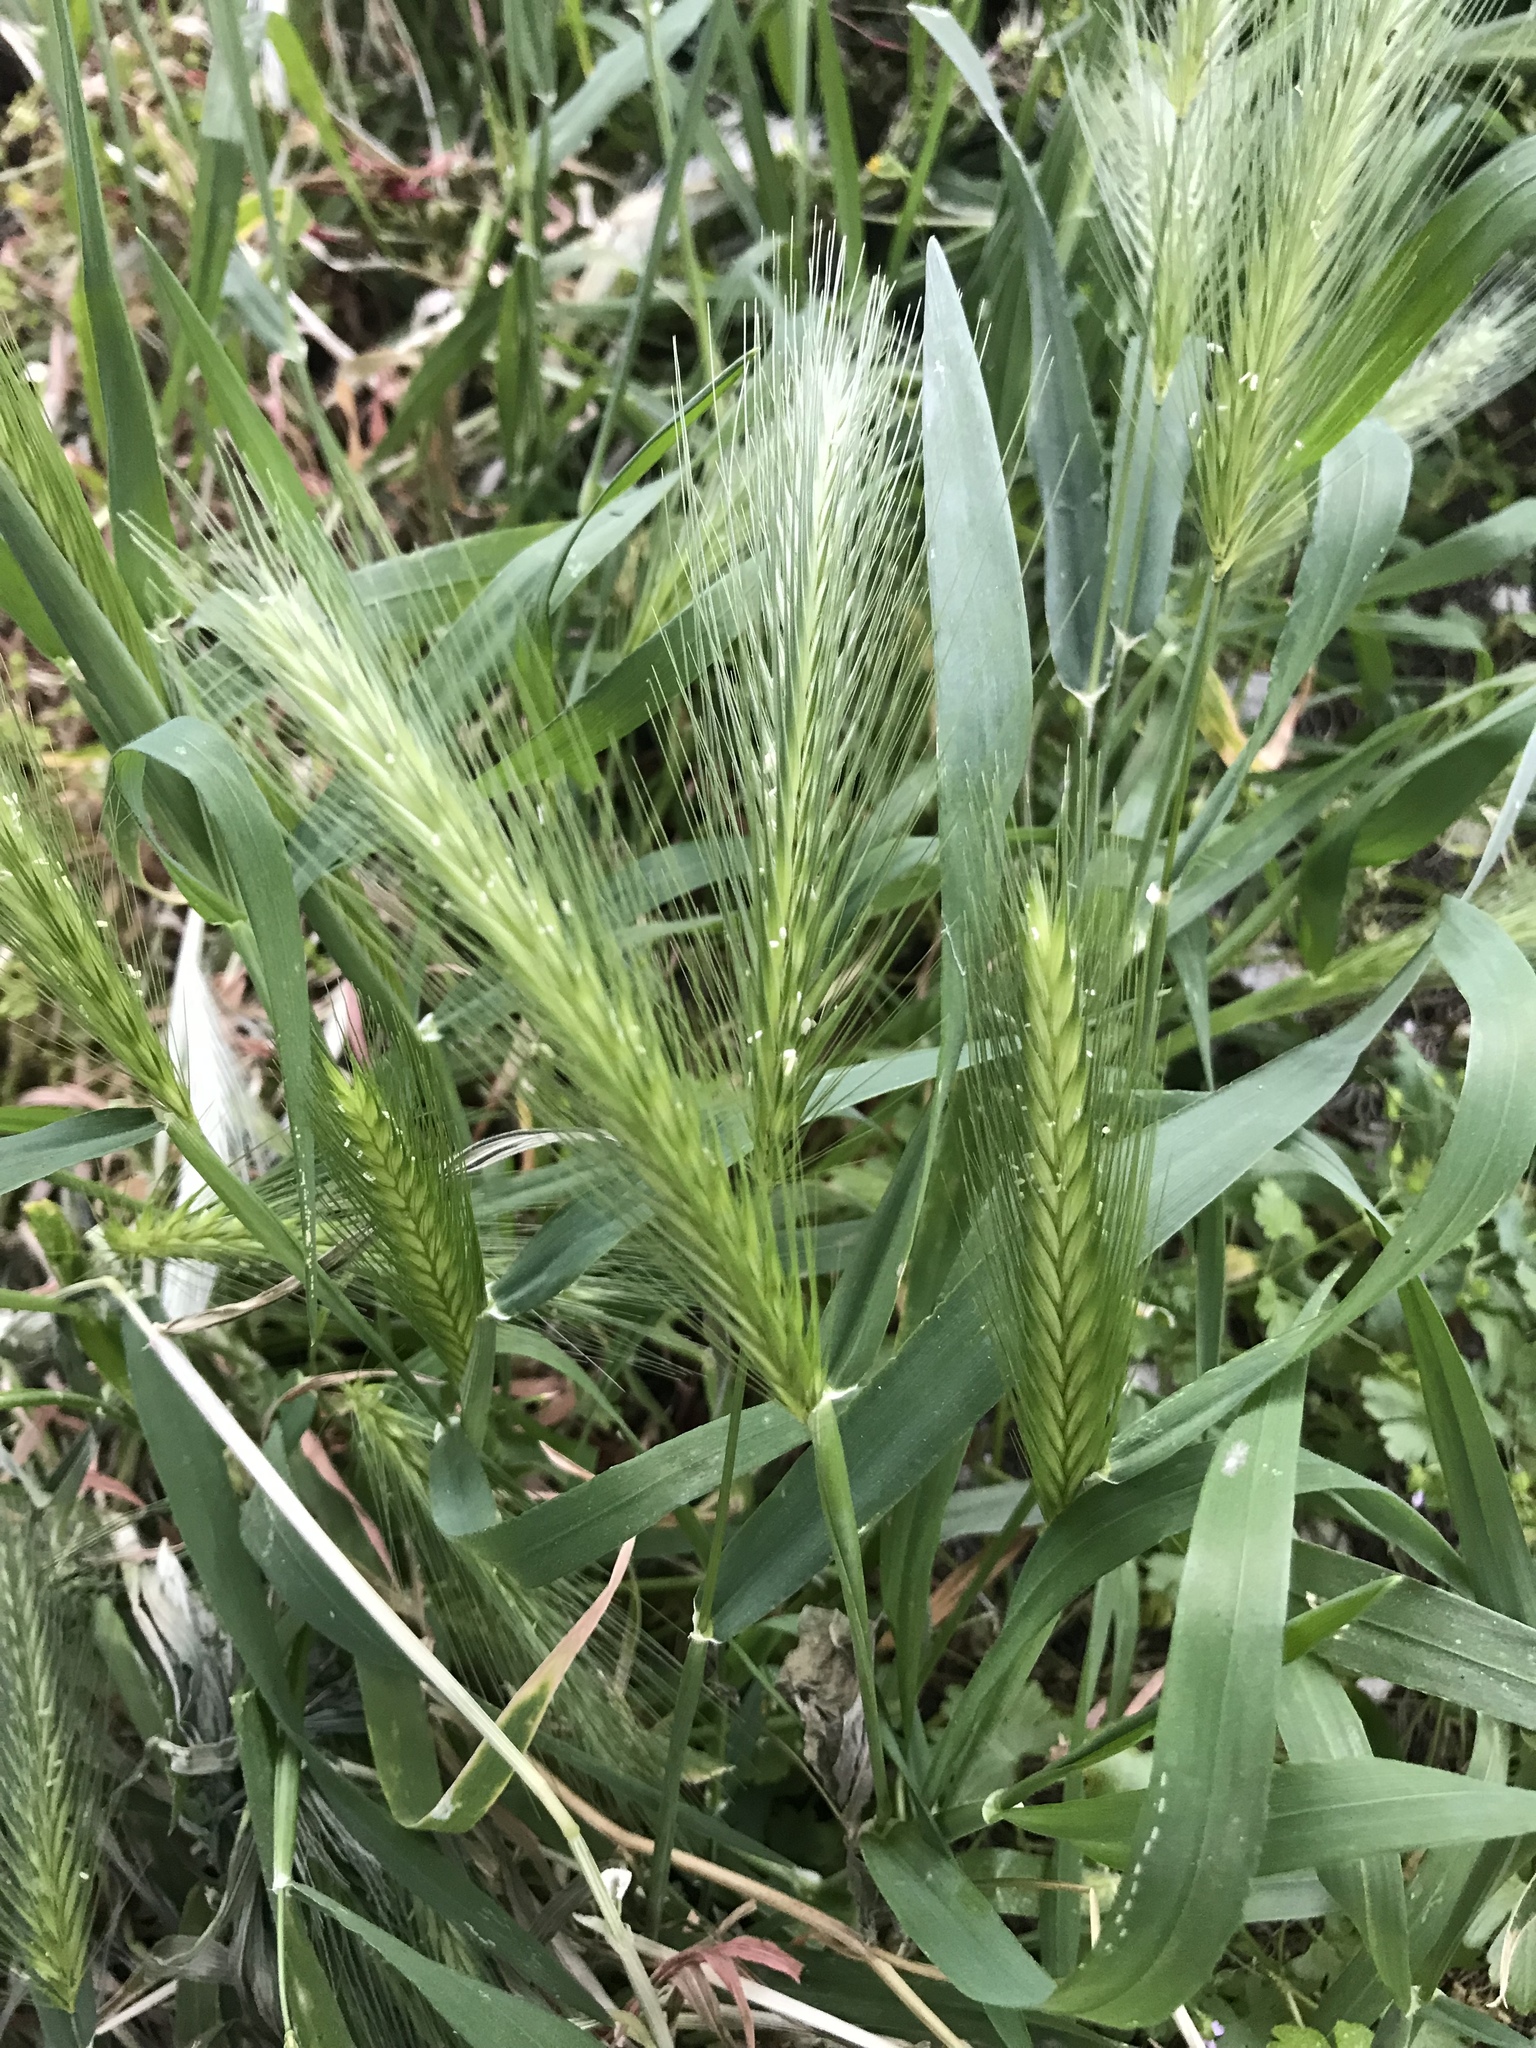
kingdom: Plantae
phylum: Tracheophyta
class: Liliopsida
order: Poales
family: Poaceae
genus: Hordeum
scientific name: Hordeum murinum
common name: Wall barley
